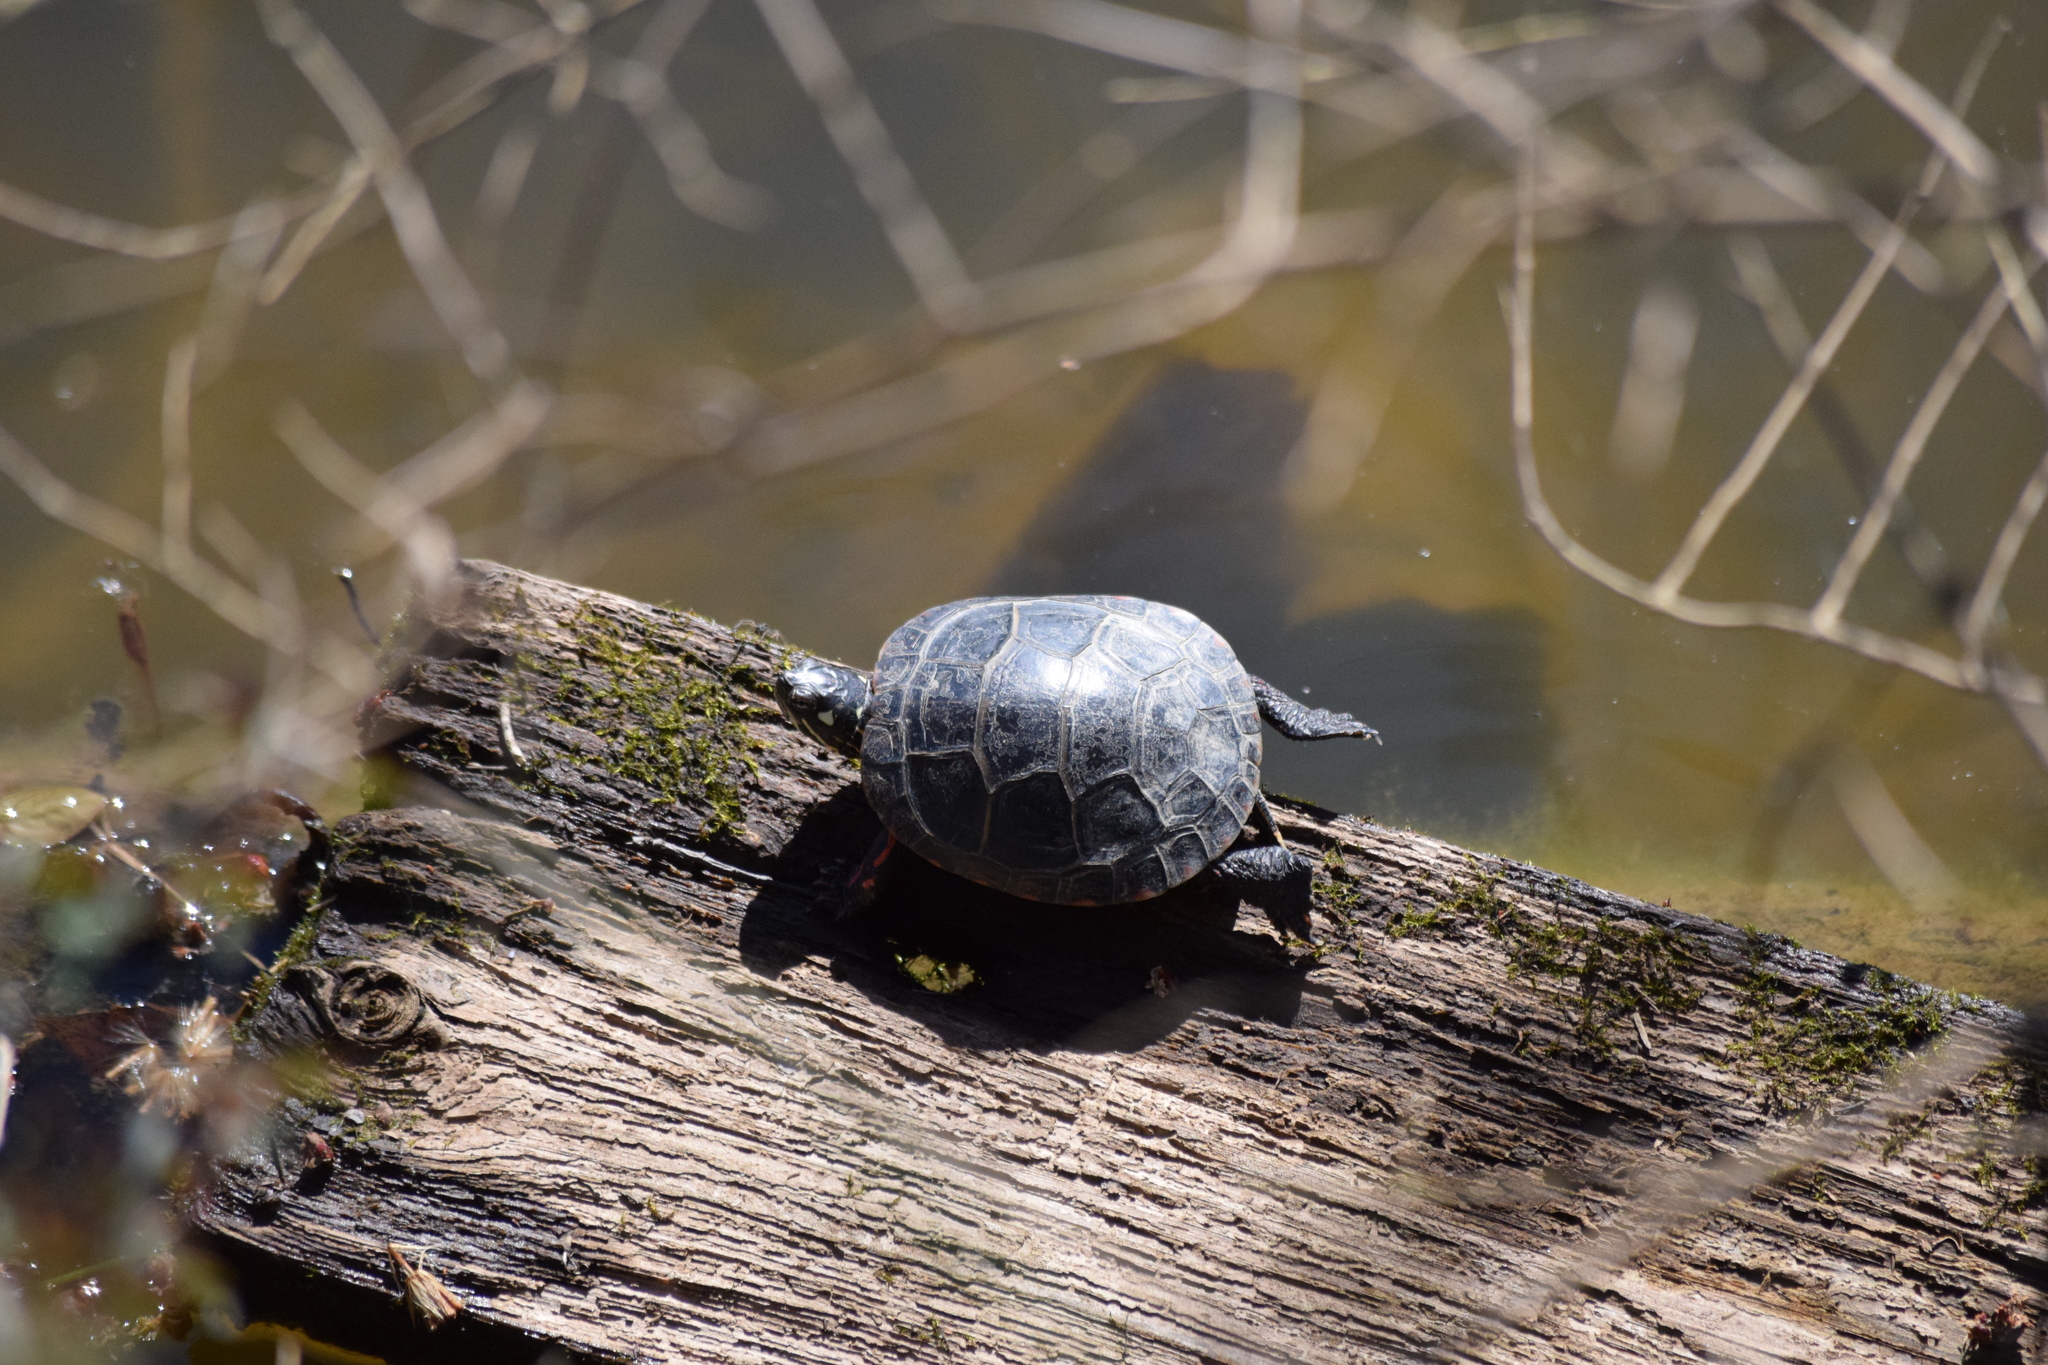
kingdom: Animalia
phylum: Chordata
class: Testudines
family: Emydidae
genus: Chrysemys
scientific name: Chrysemys picta
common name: Painted turtle
